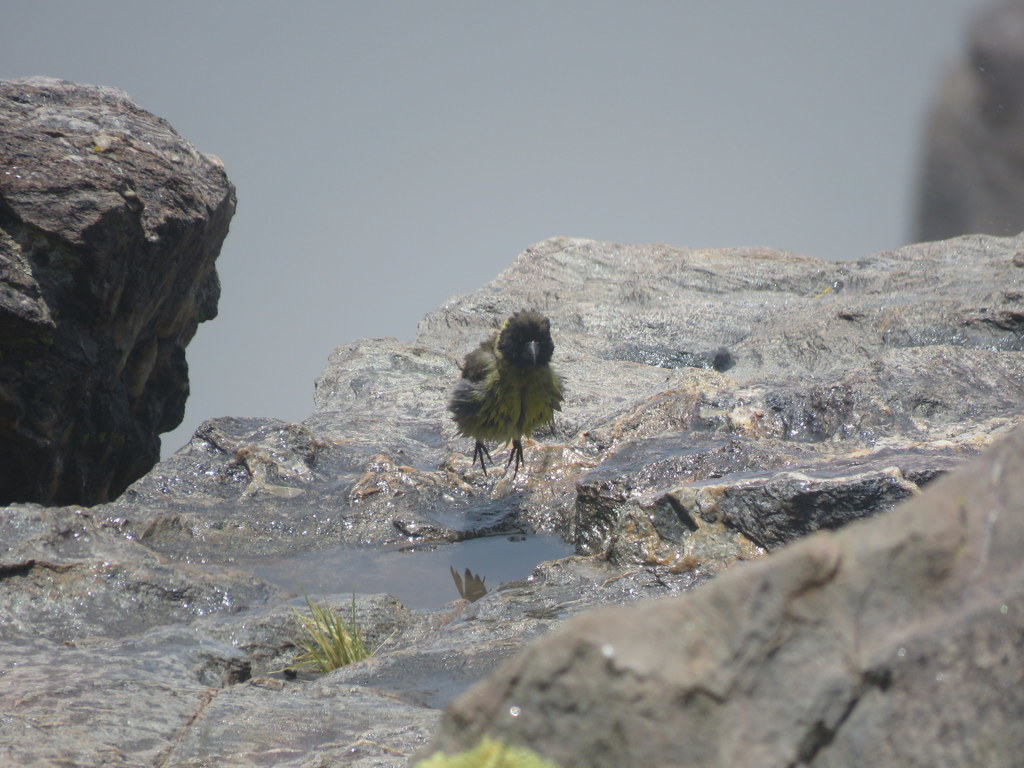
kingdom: Animalia
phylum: Chordata
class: Aves
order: Passeriformes
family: Fringillidae
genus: Spinus
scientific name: Spinus crassirostris
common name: Thick-billed siskin
